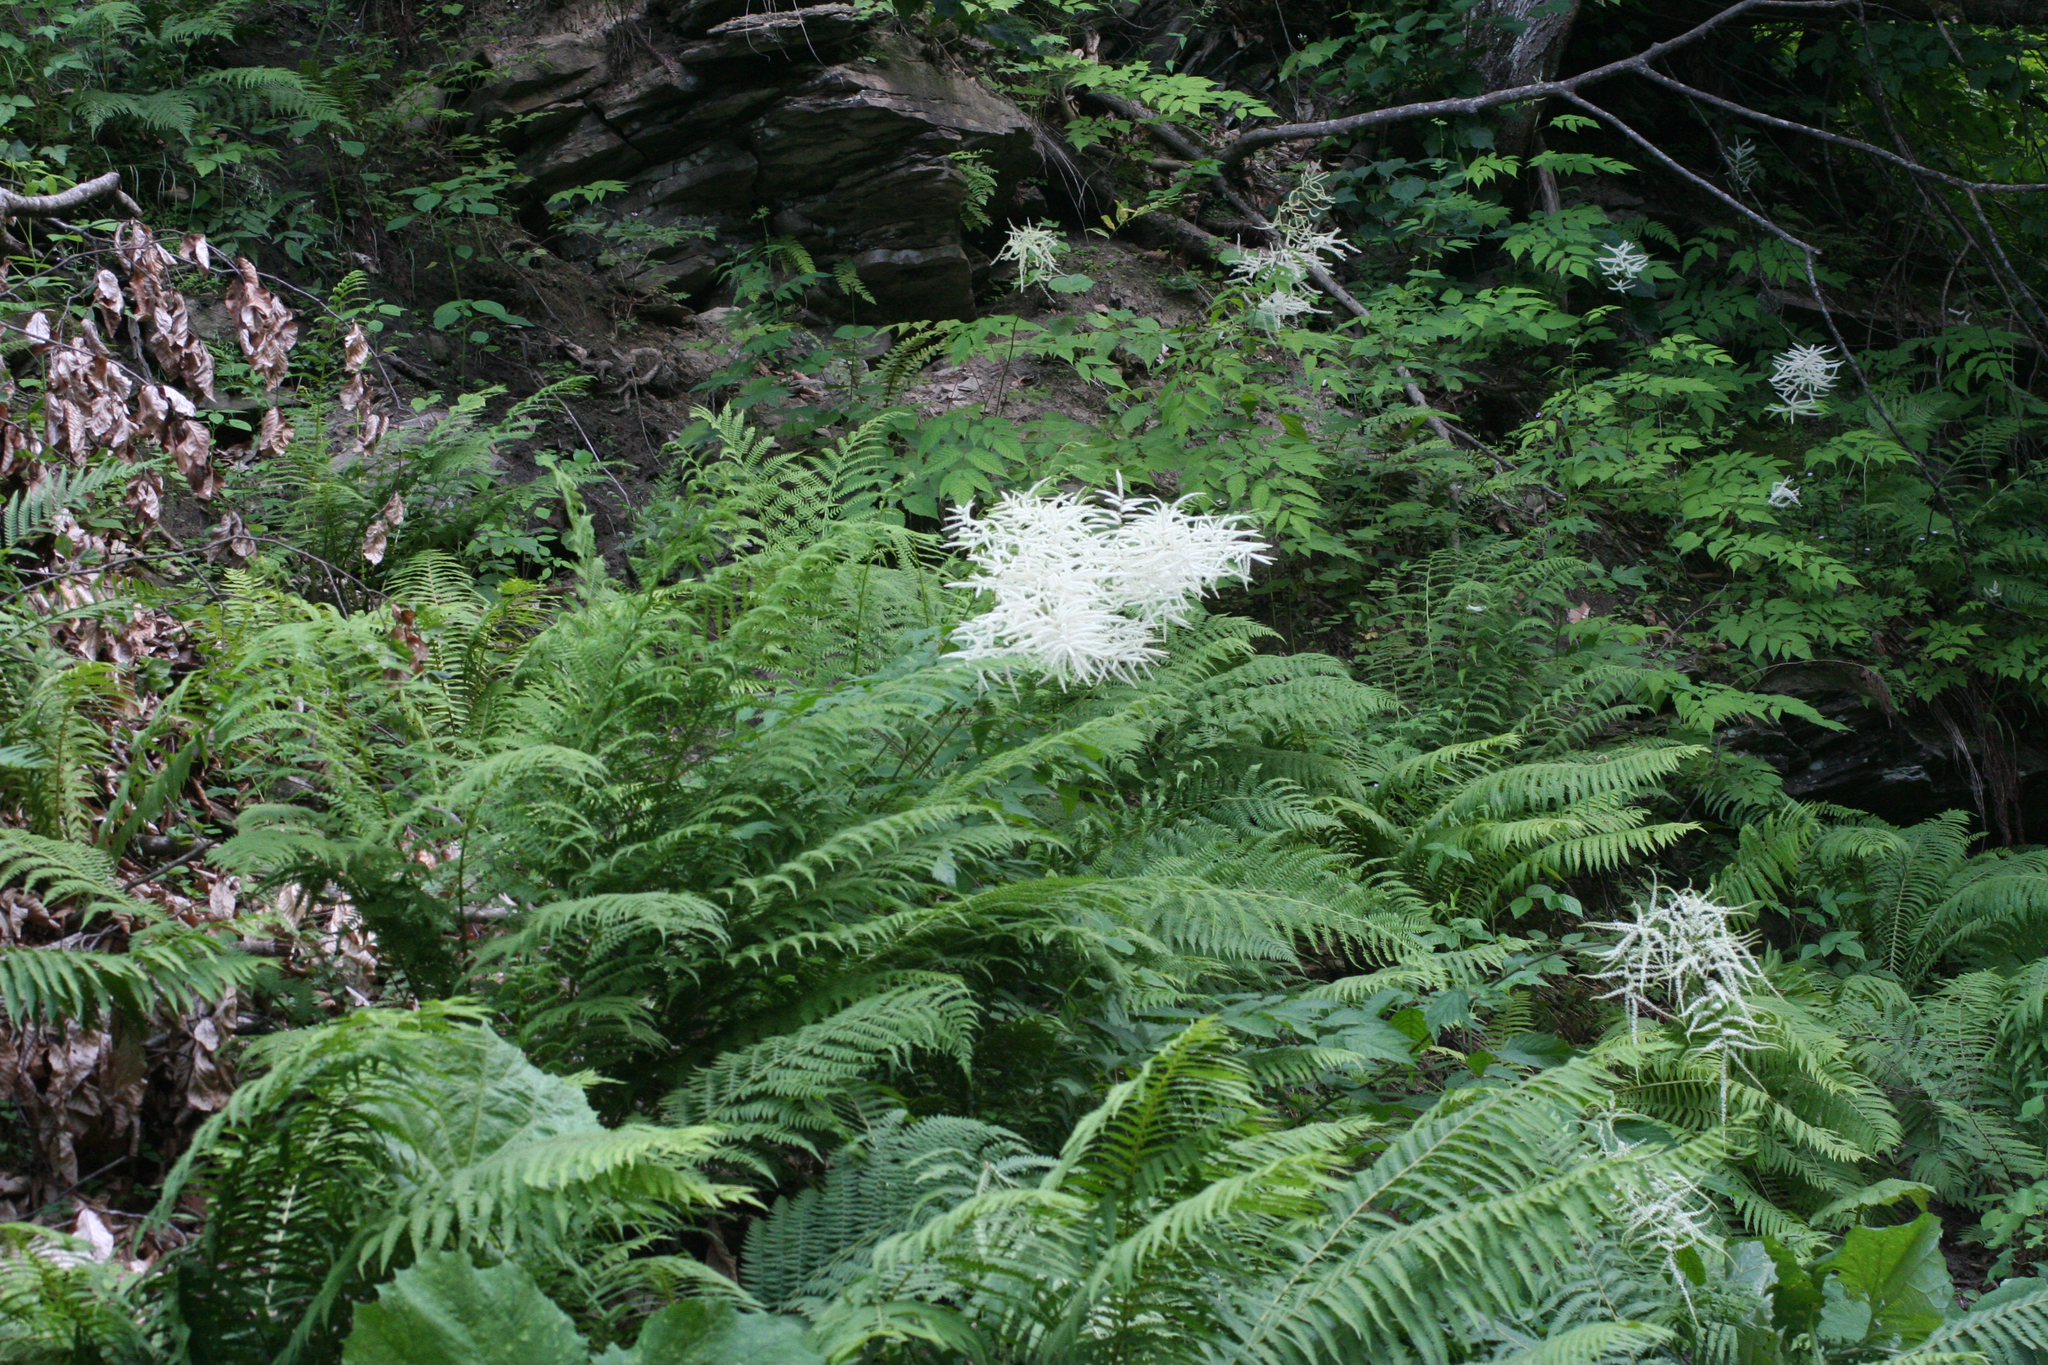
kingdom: Plantae
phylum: Tracheophyta
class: Magnoliopsida
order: Rosales
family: Rosaceae
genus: Aruncus
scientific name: Aruncus dioicus
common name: Buck's-beard
